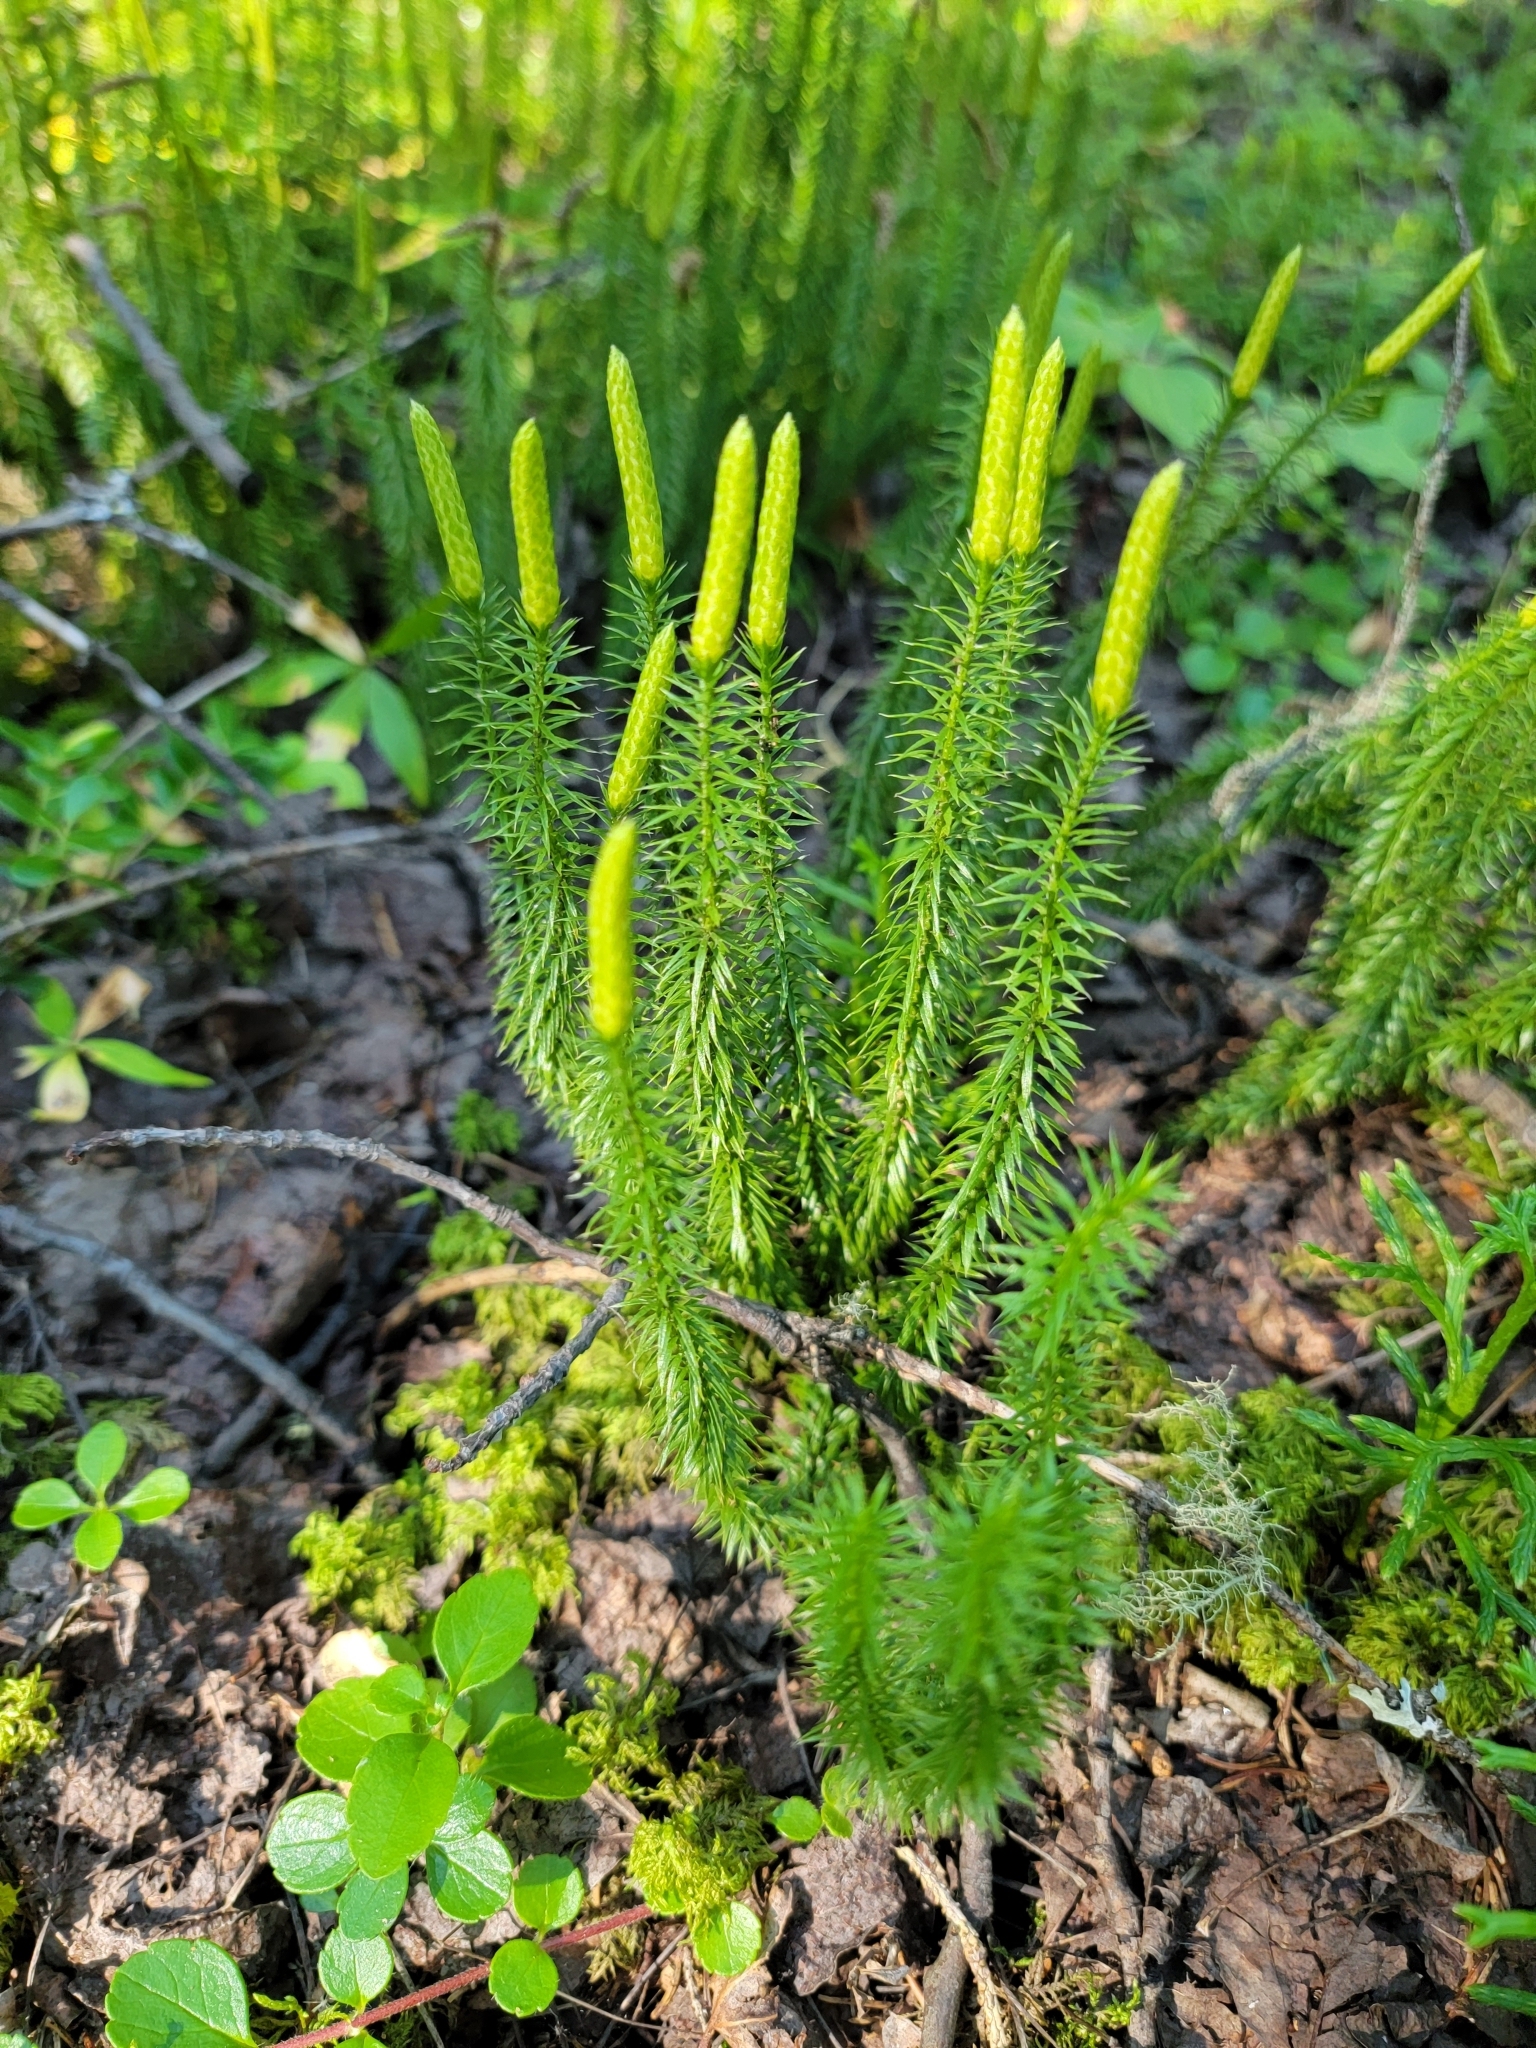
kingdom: Plantae
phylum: Tracheophyta
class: Lycopodiopsida
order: Lycopodiales
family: Lycopodiaceae
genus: Spinulum
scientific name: Spinulum annotinum
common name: Interrupted club-moss
